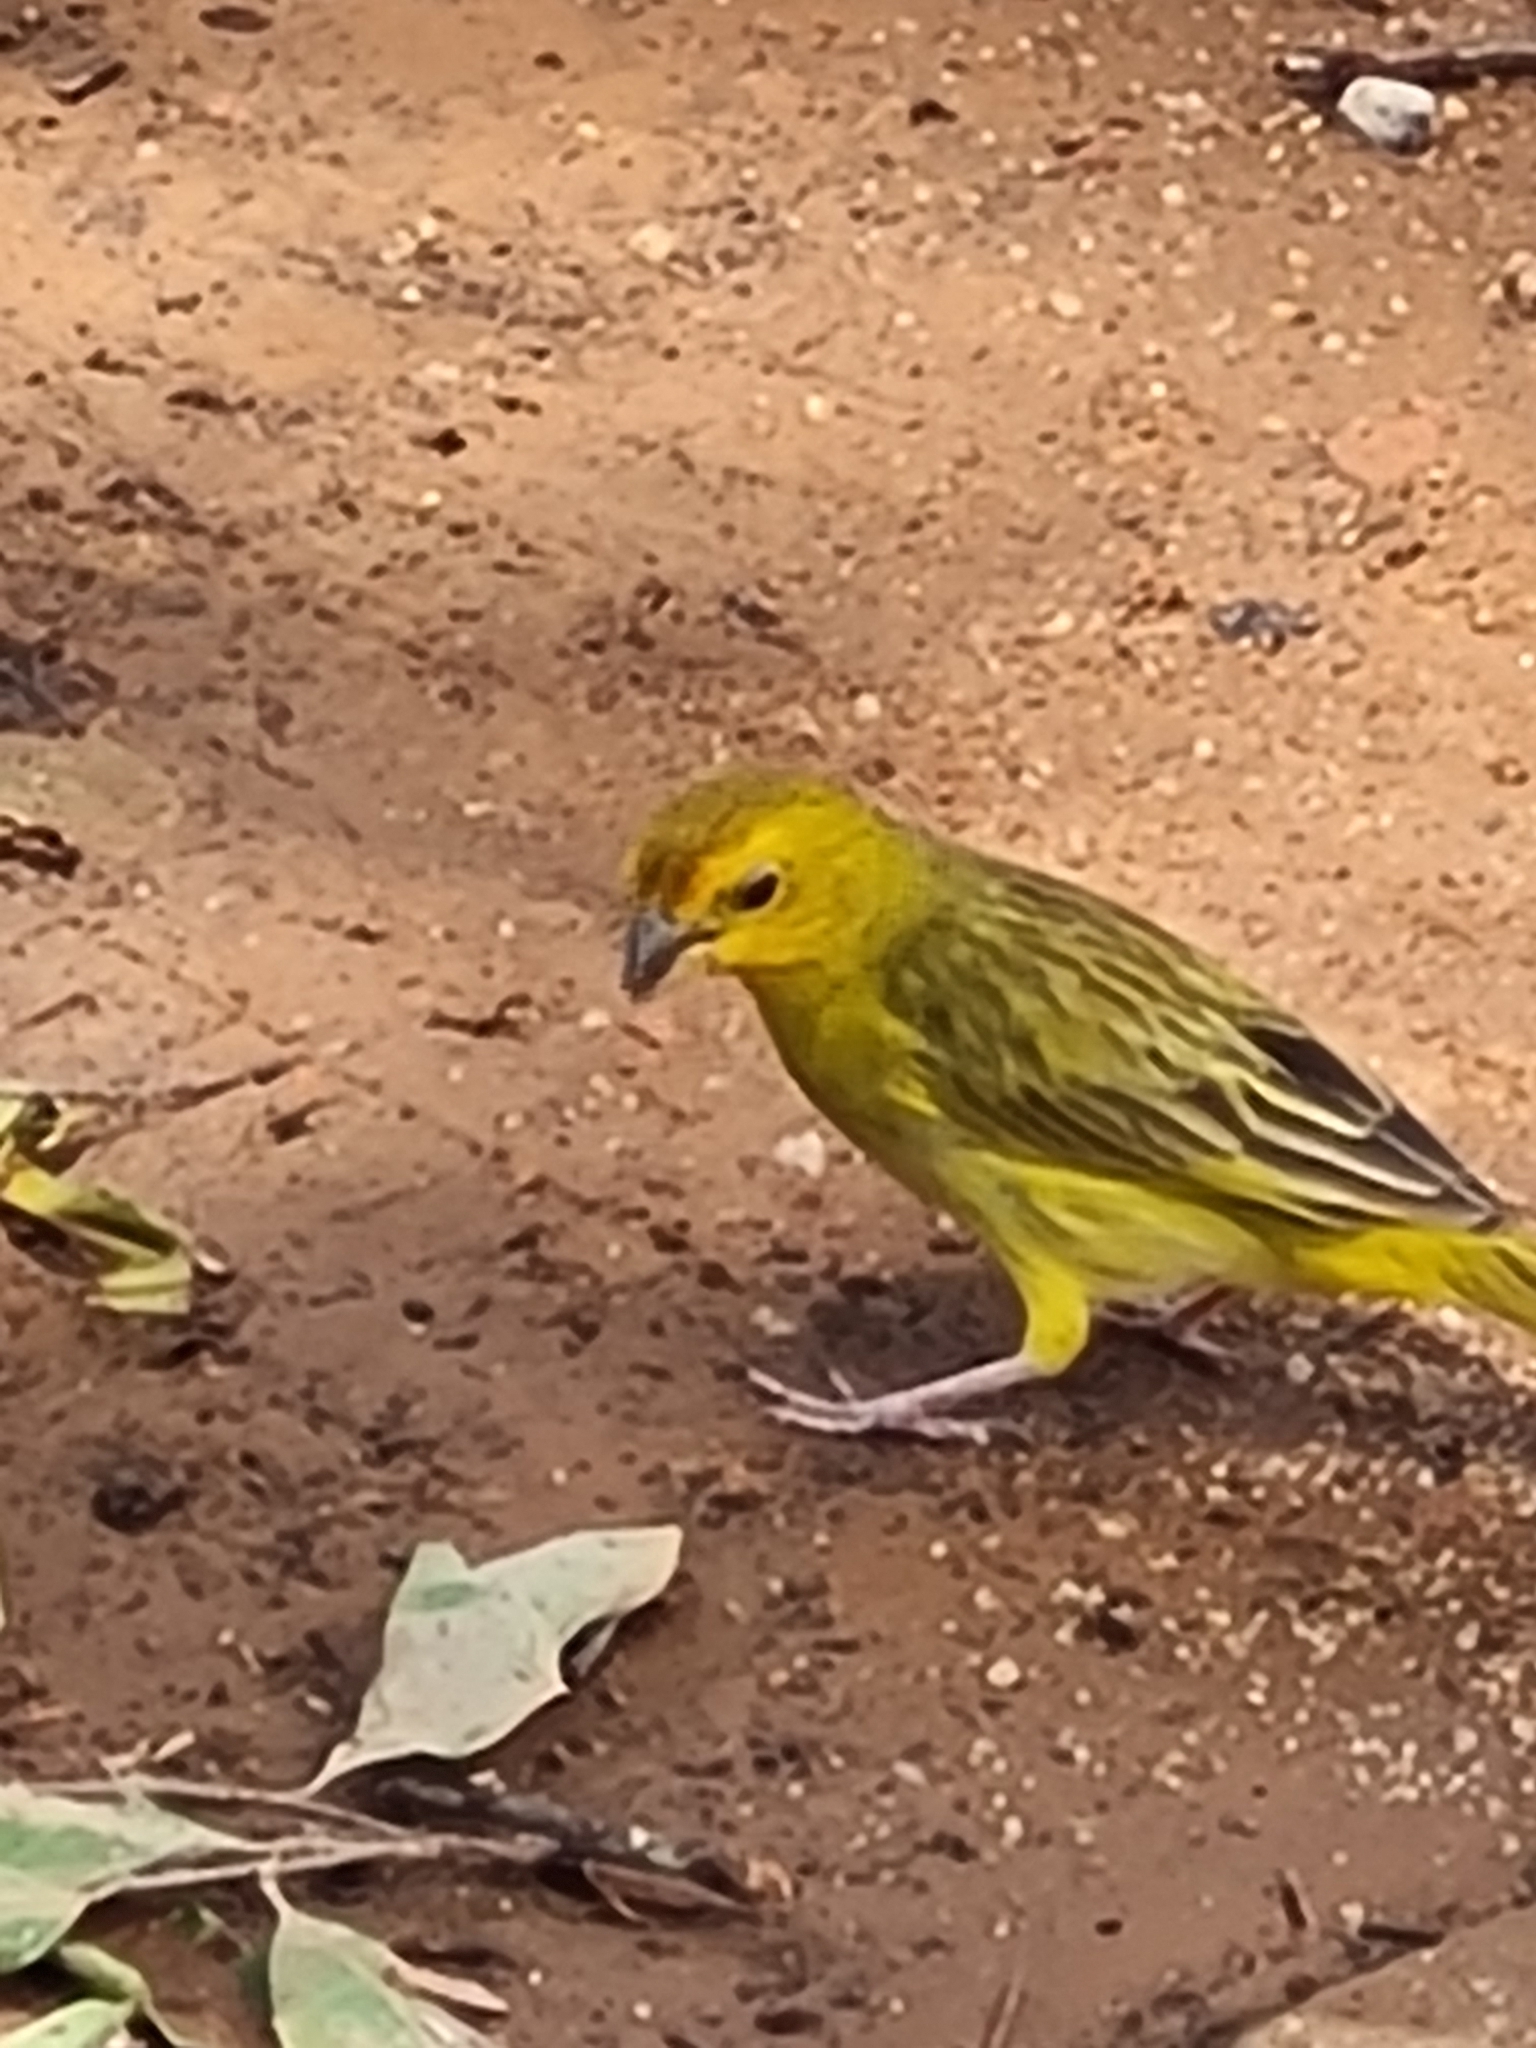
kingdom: Animalia
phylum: Chordata
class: Aves
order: Passeriformes
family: Thraupidae
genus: Sicalis
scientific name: Sicalis flaveola
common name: Saffron finch
